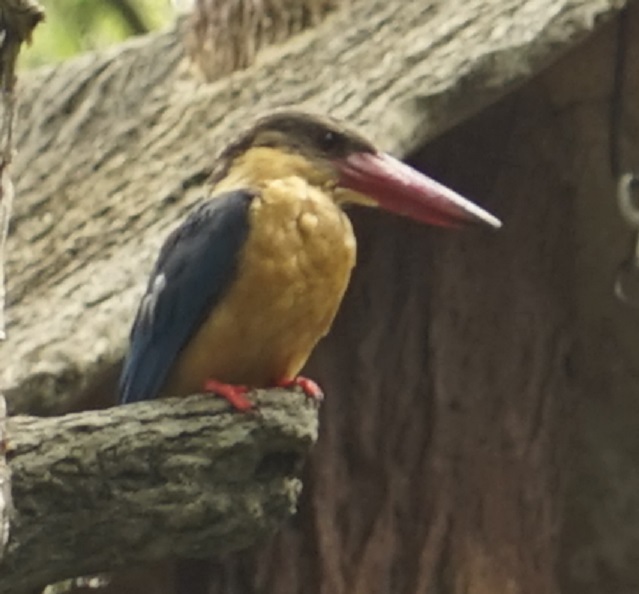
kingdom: Animalia
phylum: Chordata
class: Aves
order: Coraciiformes
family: Alcedinidae
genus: Pelargopsis
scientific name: Pelargopsis capensis
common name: Stork-billed kingfisher
